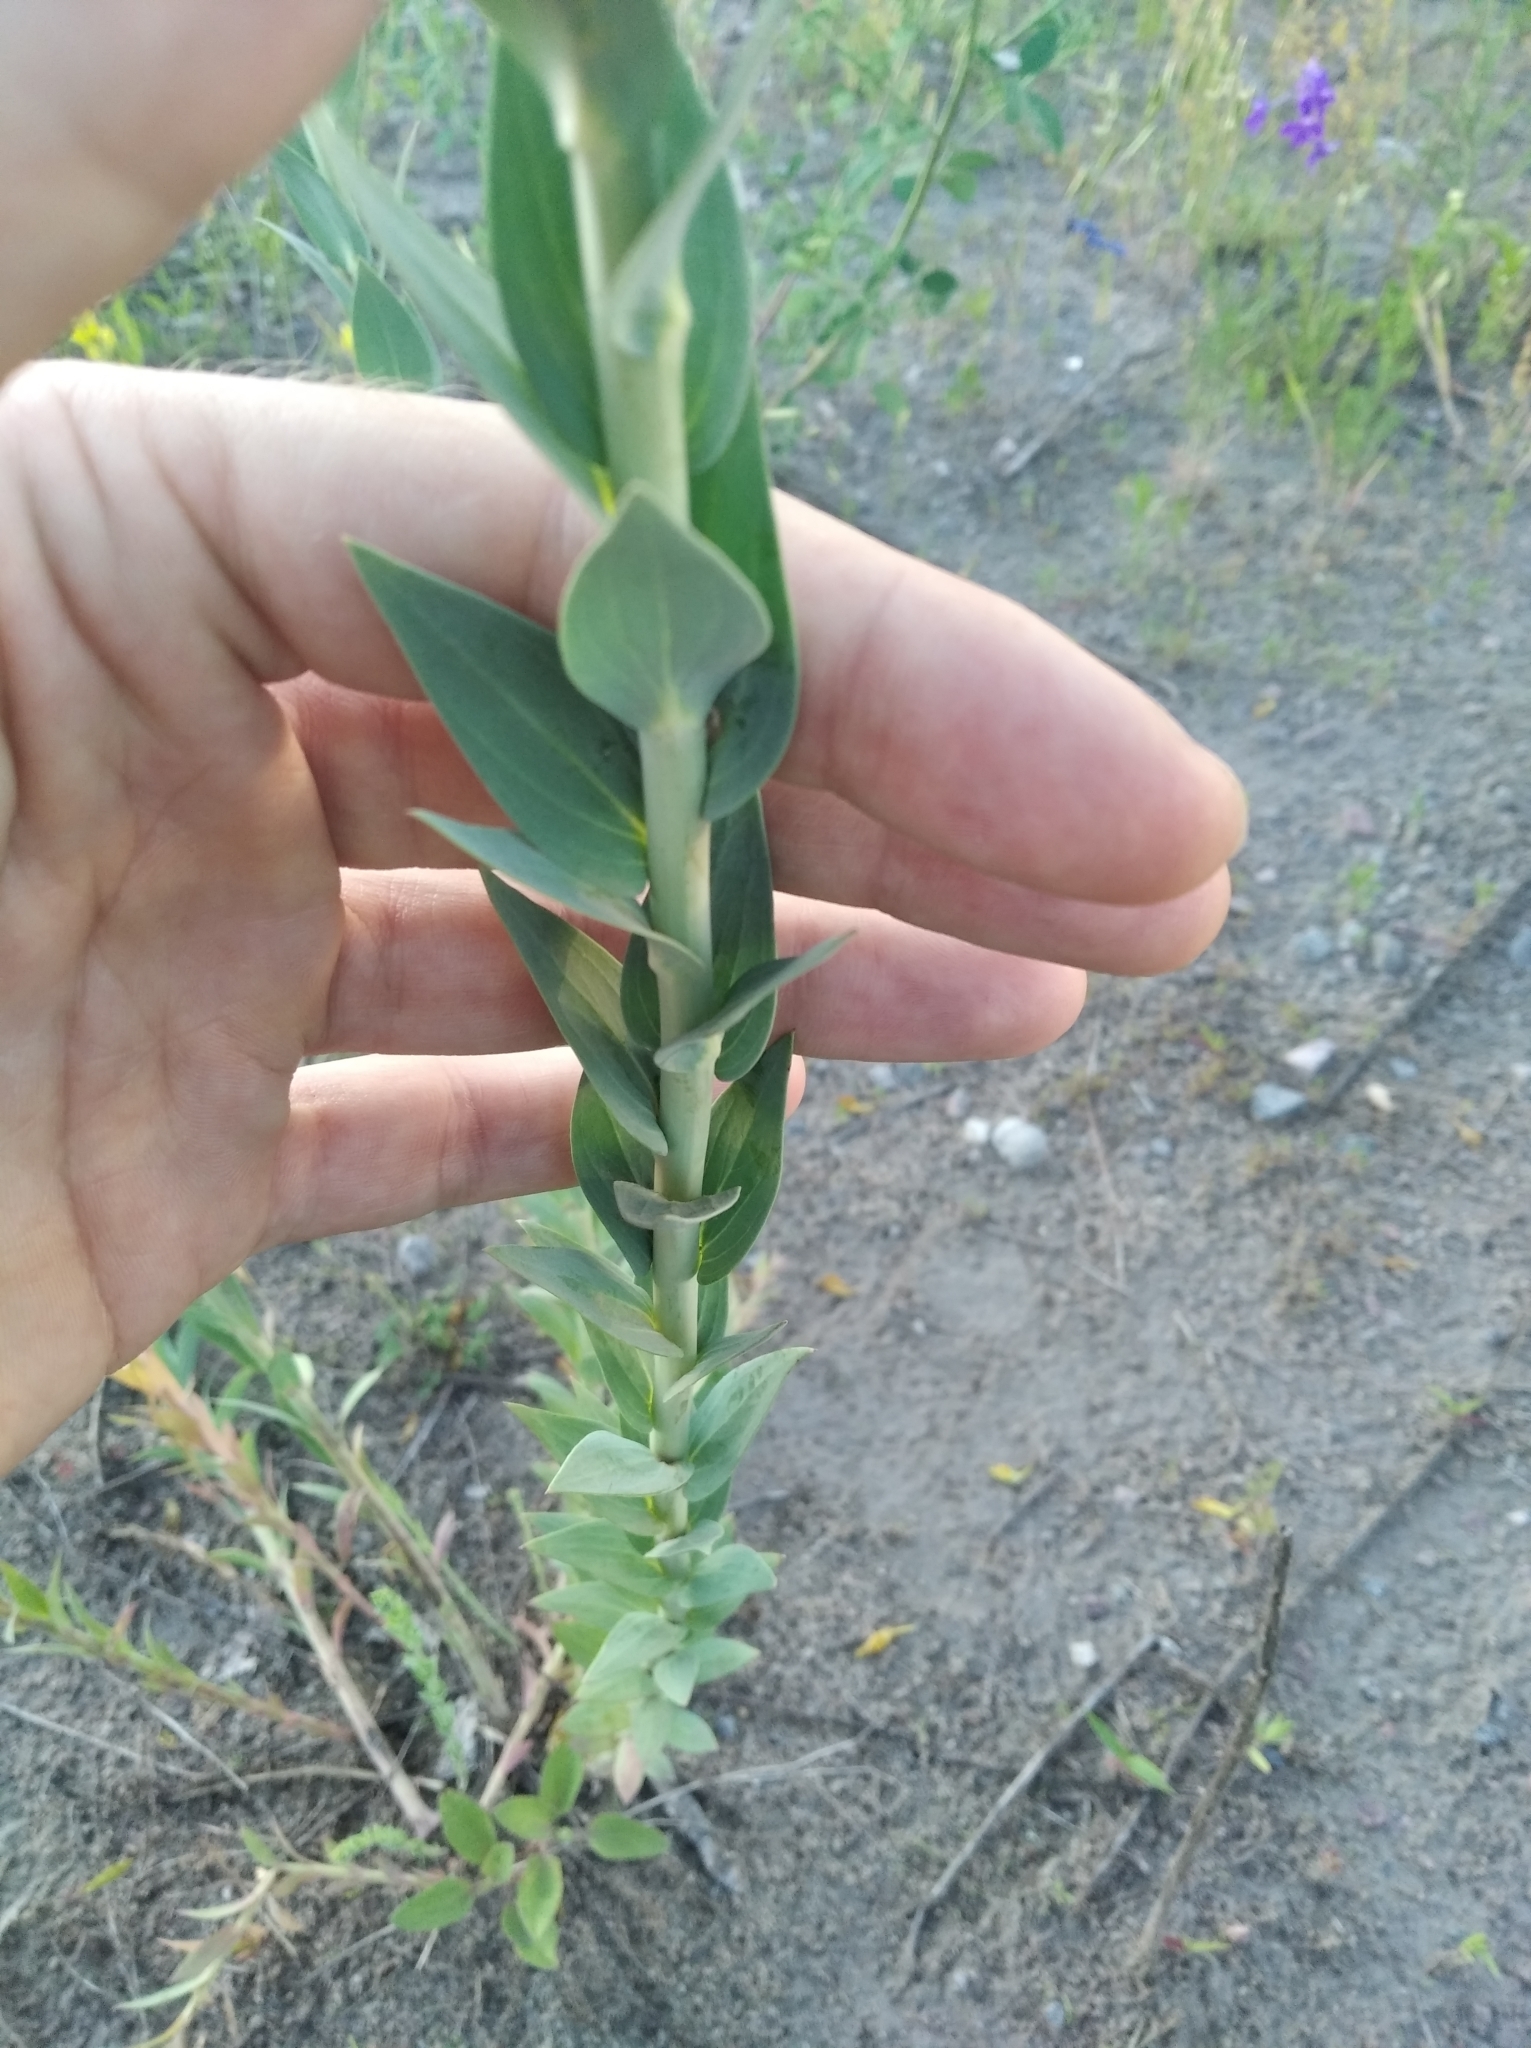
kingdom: Plantae
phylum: Tracheophyta
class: Magnoliopsida
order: Lamiales
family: Plantaginaceae
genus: Linaria
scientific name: Linaria genistifolia
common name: Broomleaf toadflax
